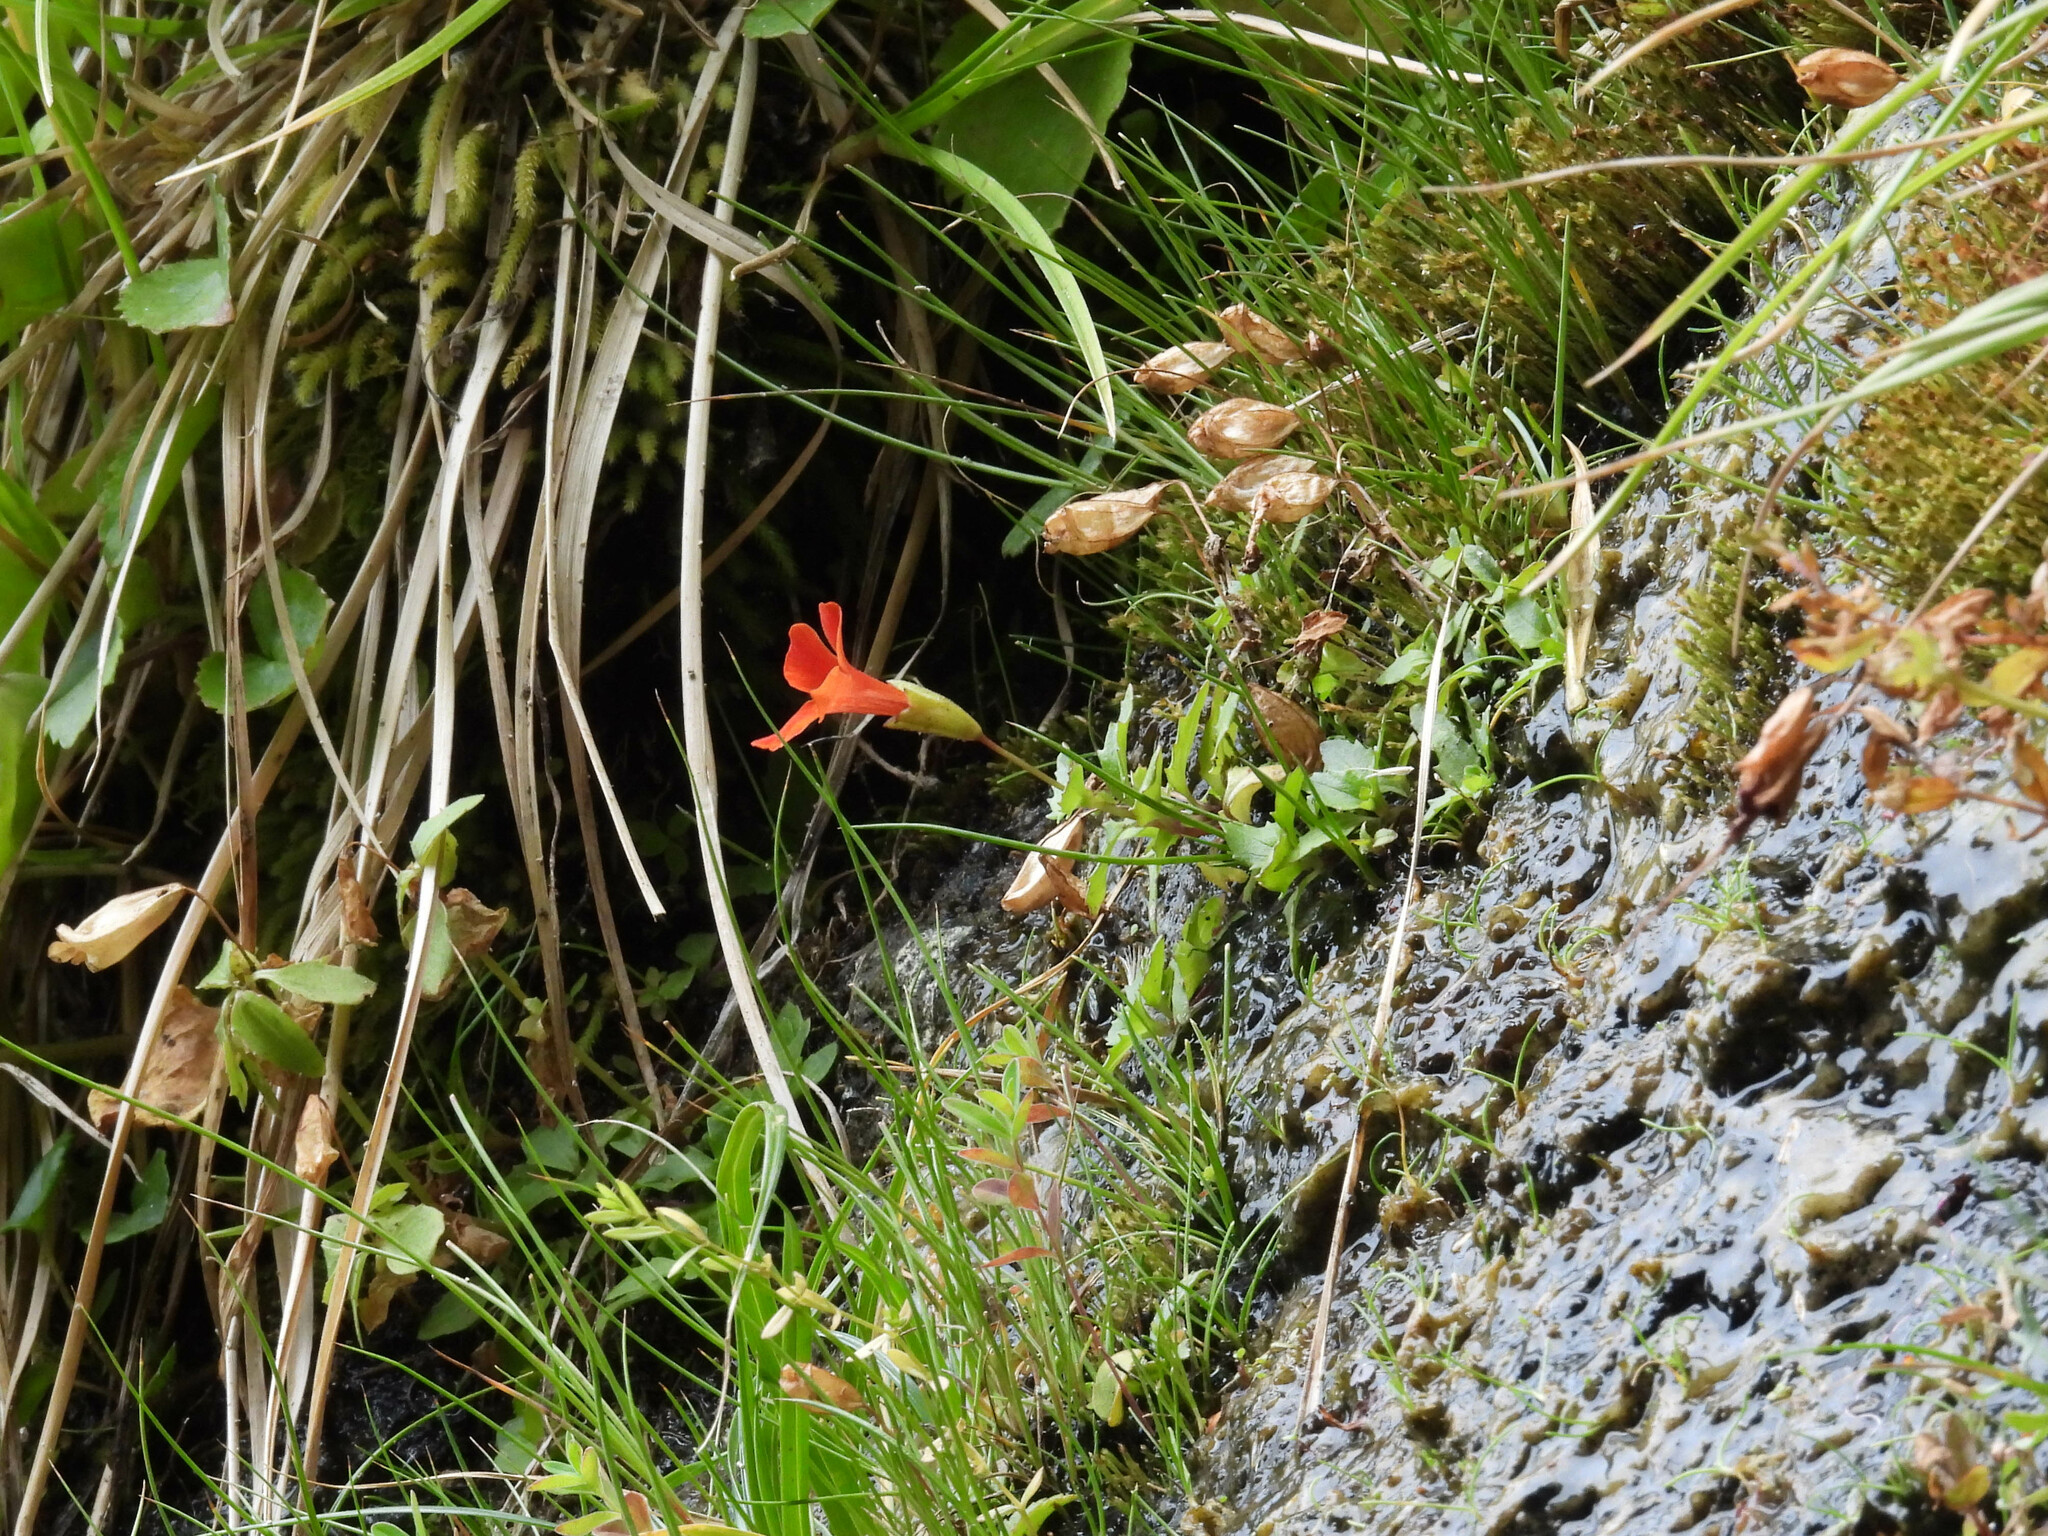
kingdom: Plantae
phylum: Tracheophyta
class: Magnoliopsida
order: Lamiales
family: Phrymaceae
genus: Erythranthe
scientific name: Erythranthe cuprea
